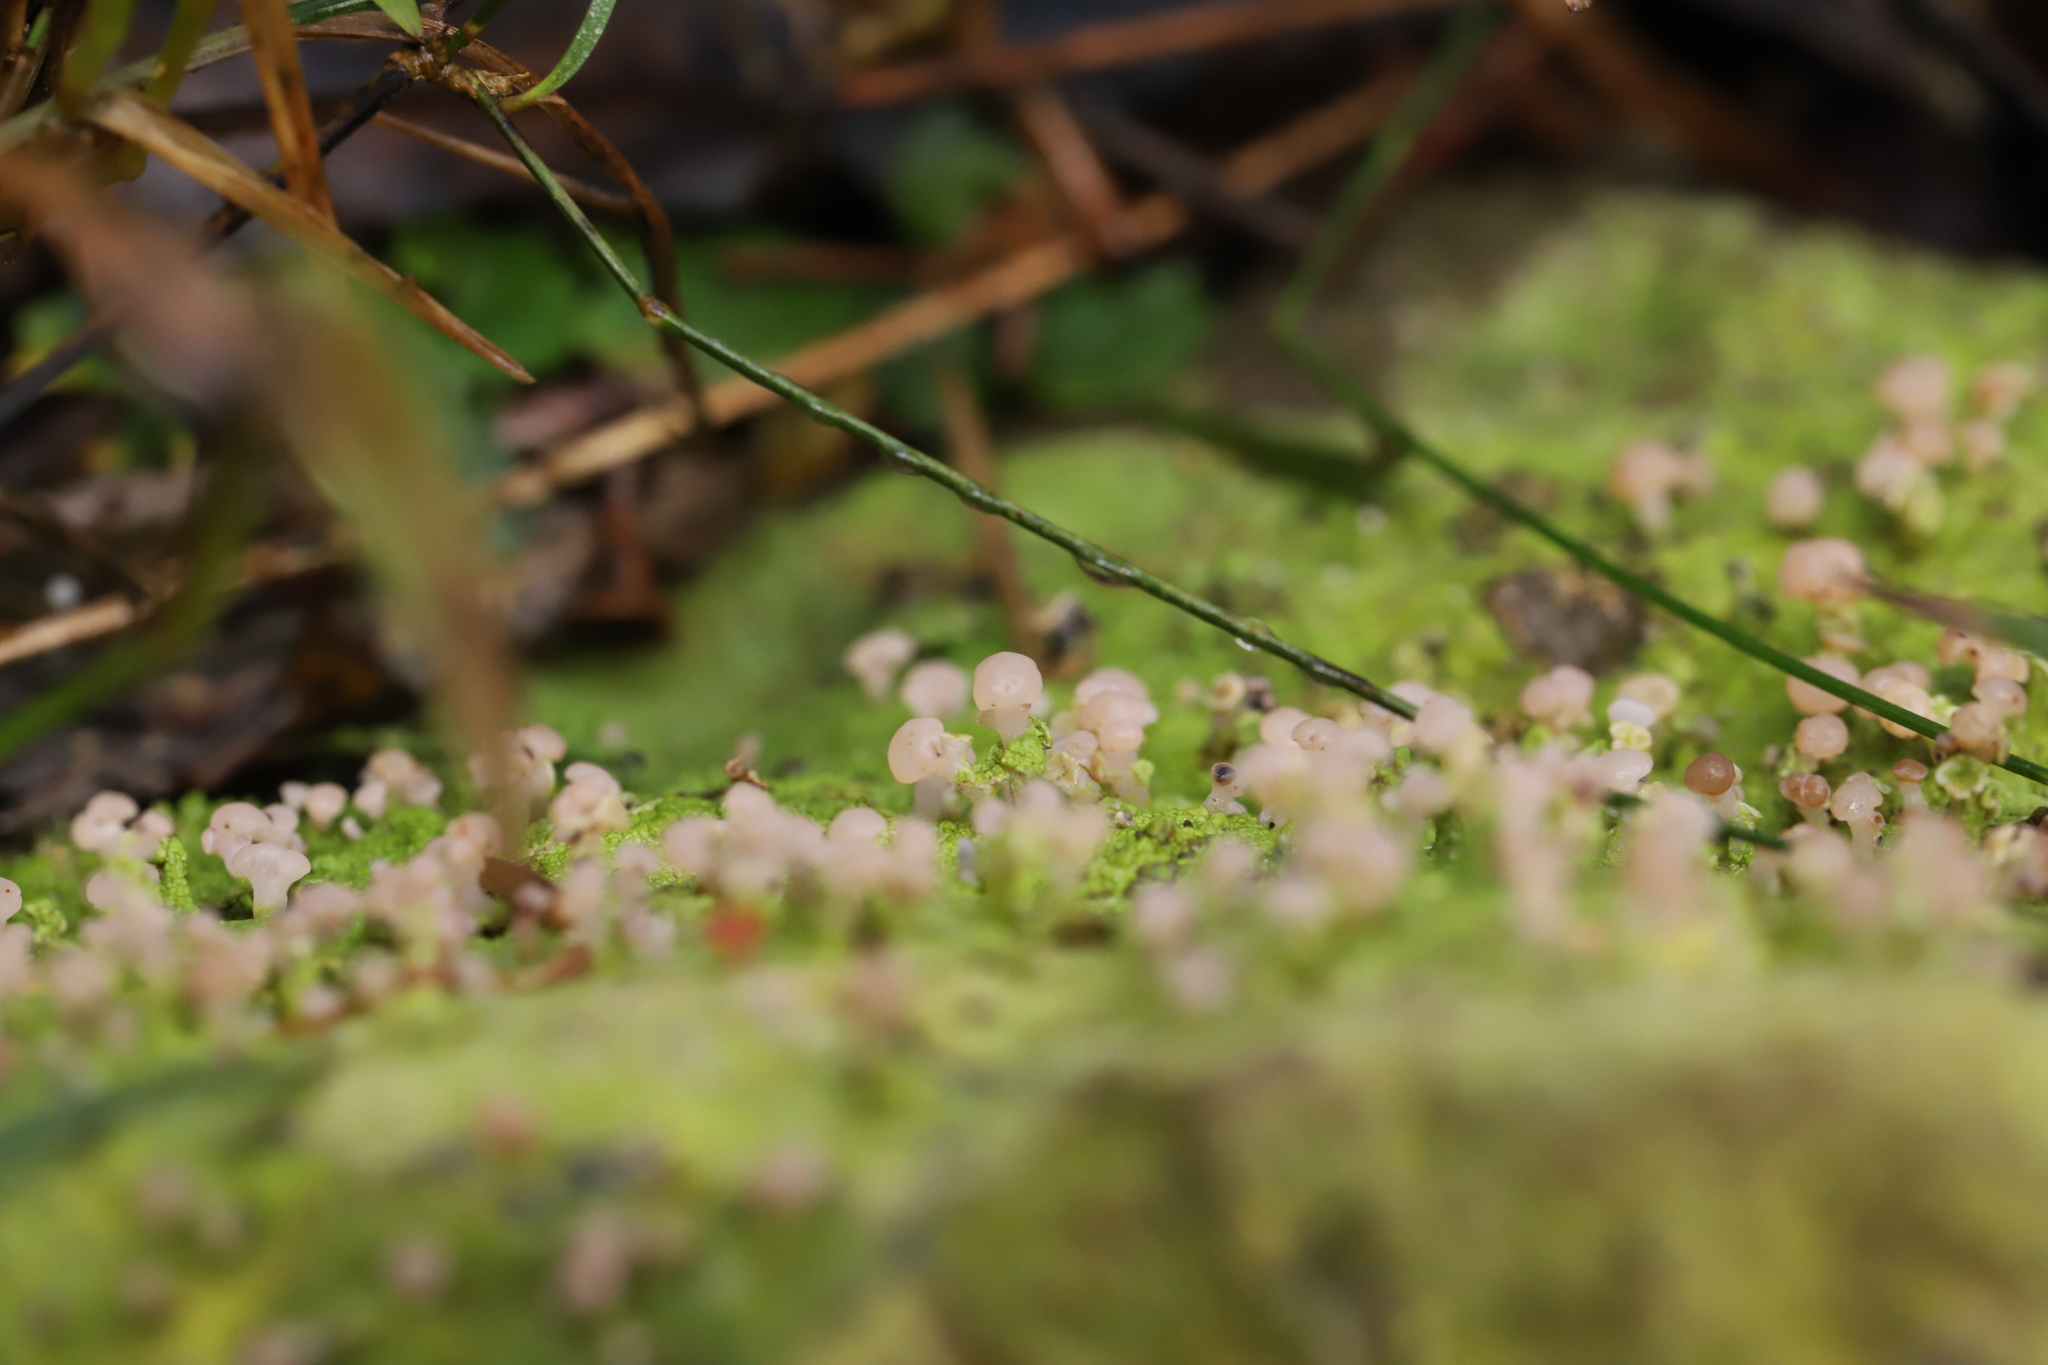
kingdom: Fungi
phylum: Ascomycota
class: Lecanoromycetes
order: Baeomycetales
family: Baeomycetaceae
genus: Baeomyces
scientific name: Baeomyces heteromorphus
